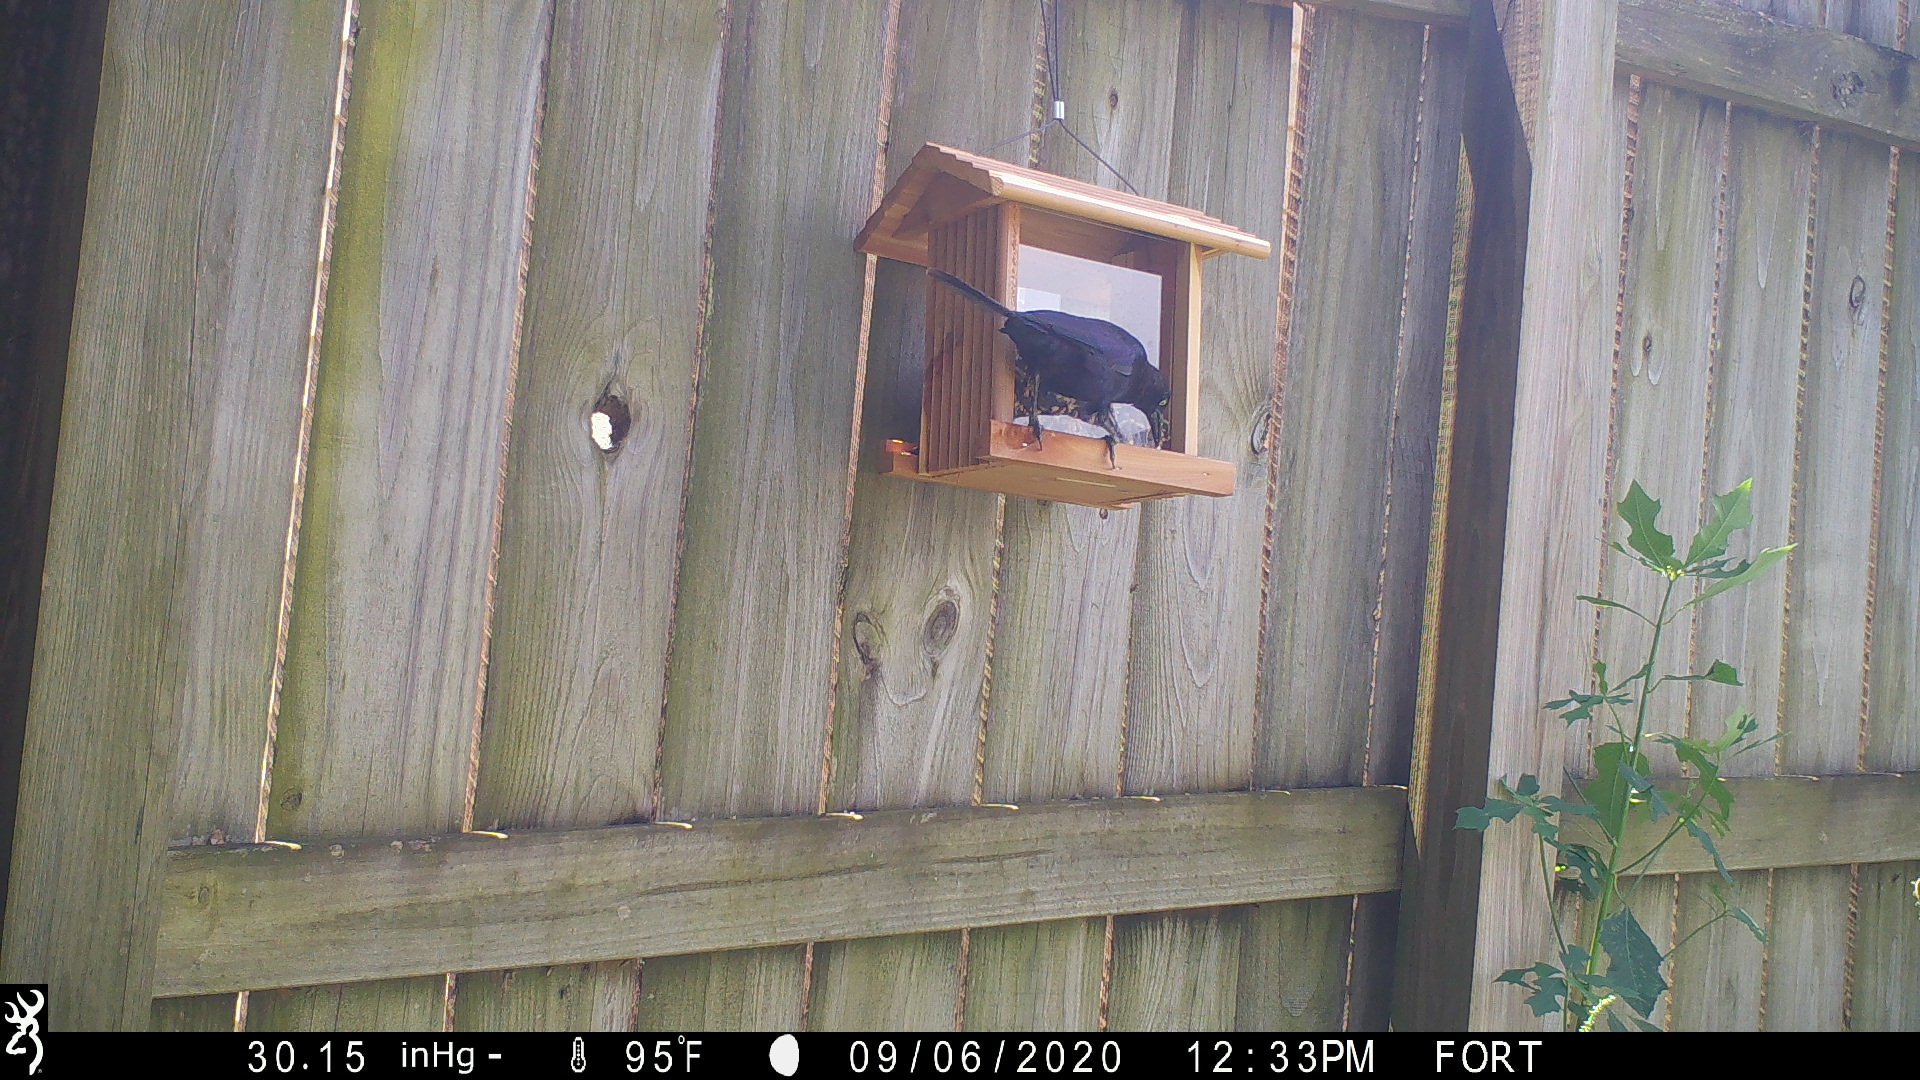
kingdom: Animalia
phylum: Chordata
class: Aves
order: Passeriformes
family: Icteridae
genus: Quiscalus
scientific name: Quiscalus quiscula
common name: Common grackle
